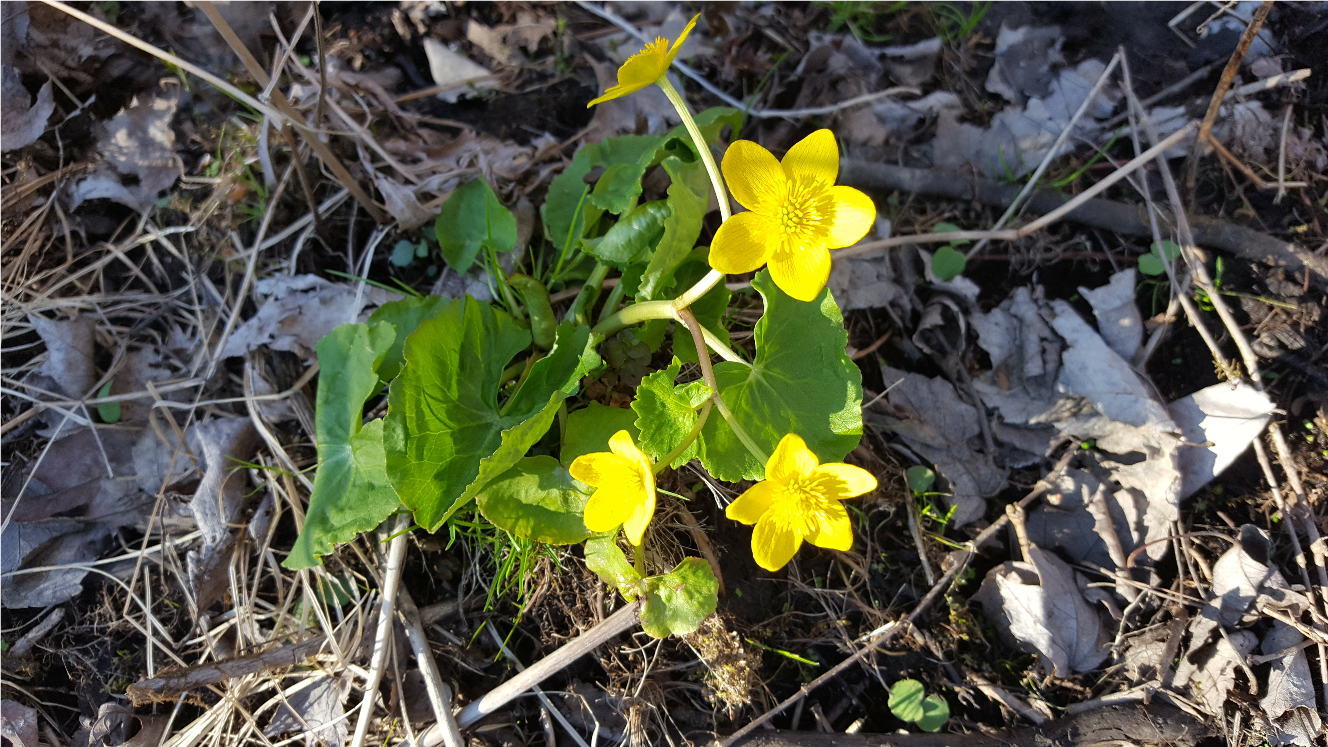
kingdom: Plantae
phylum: Tracheophyta
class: Magnoliopsida
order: Ranunculales
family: Ranunculaceae
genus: Caltha
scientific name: Caltha palustris
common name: Marsh marigold
